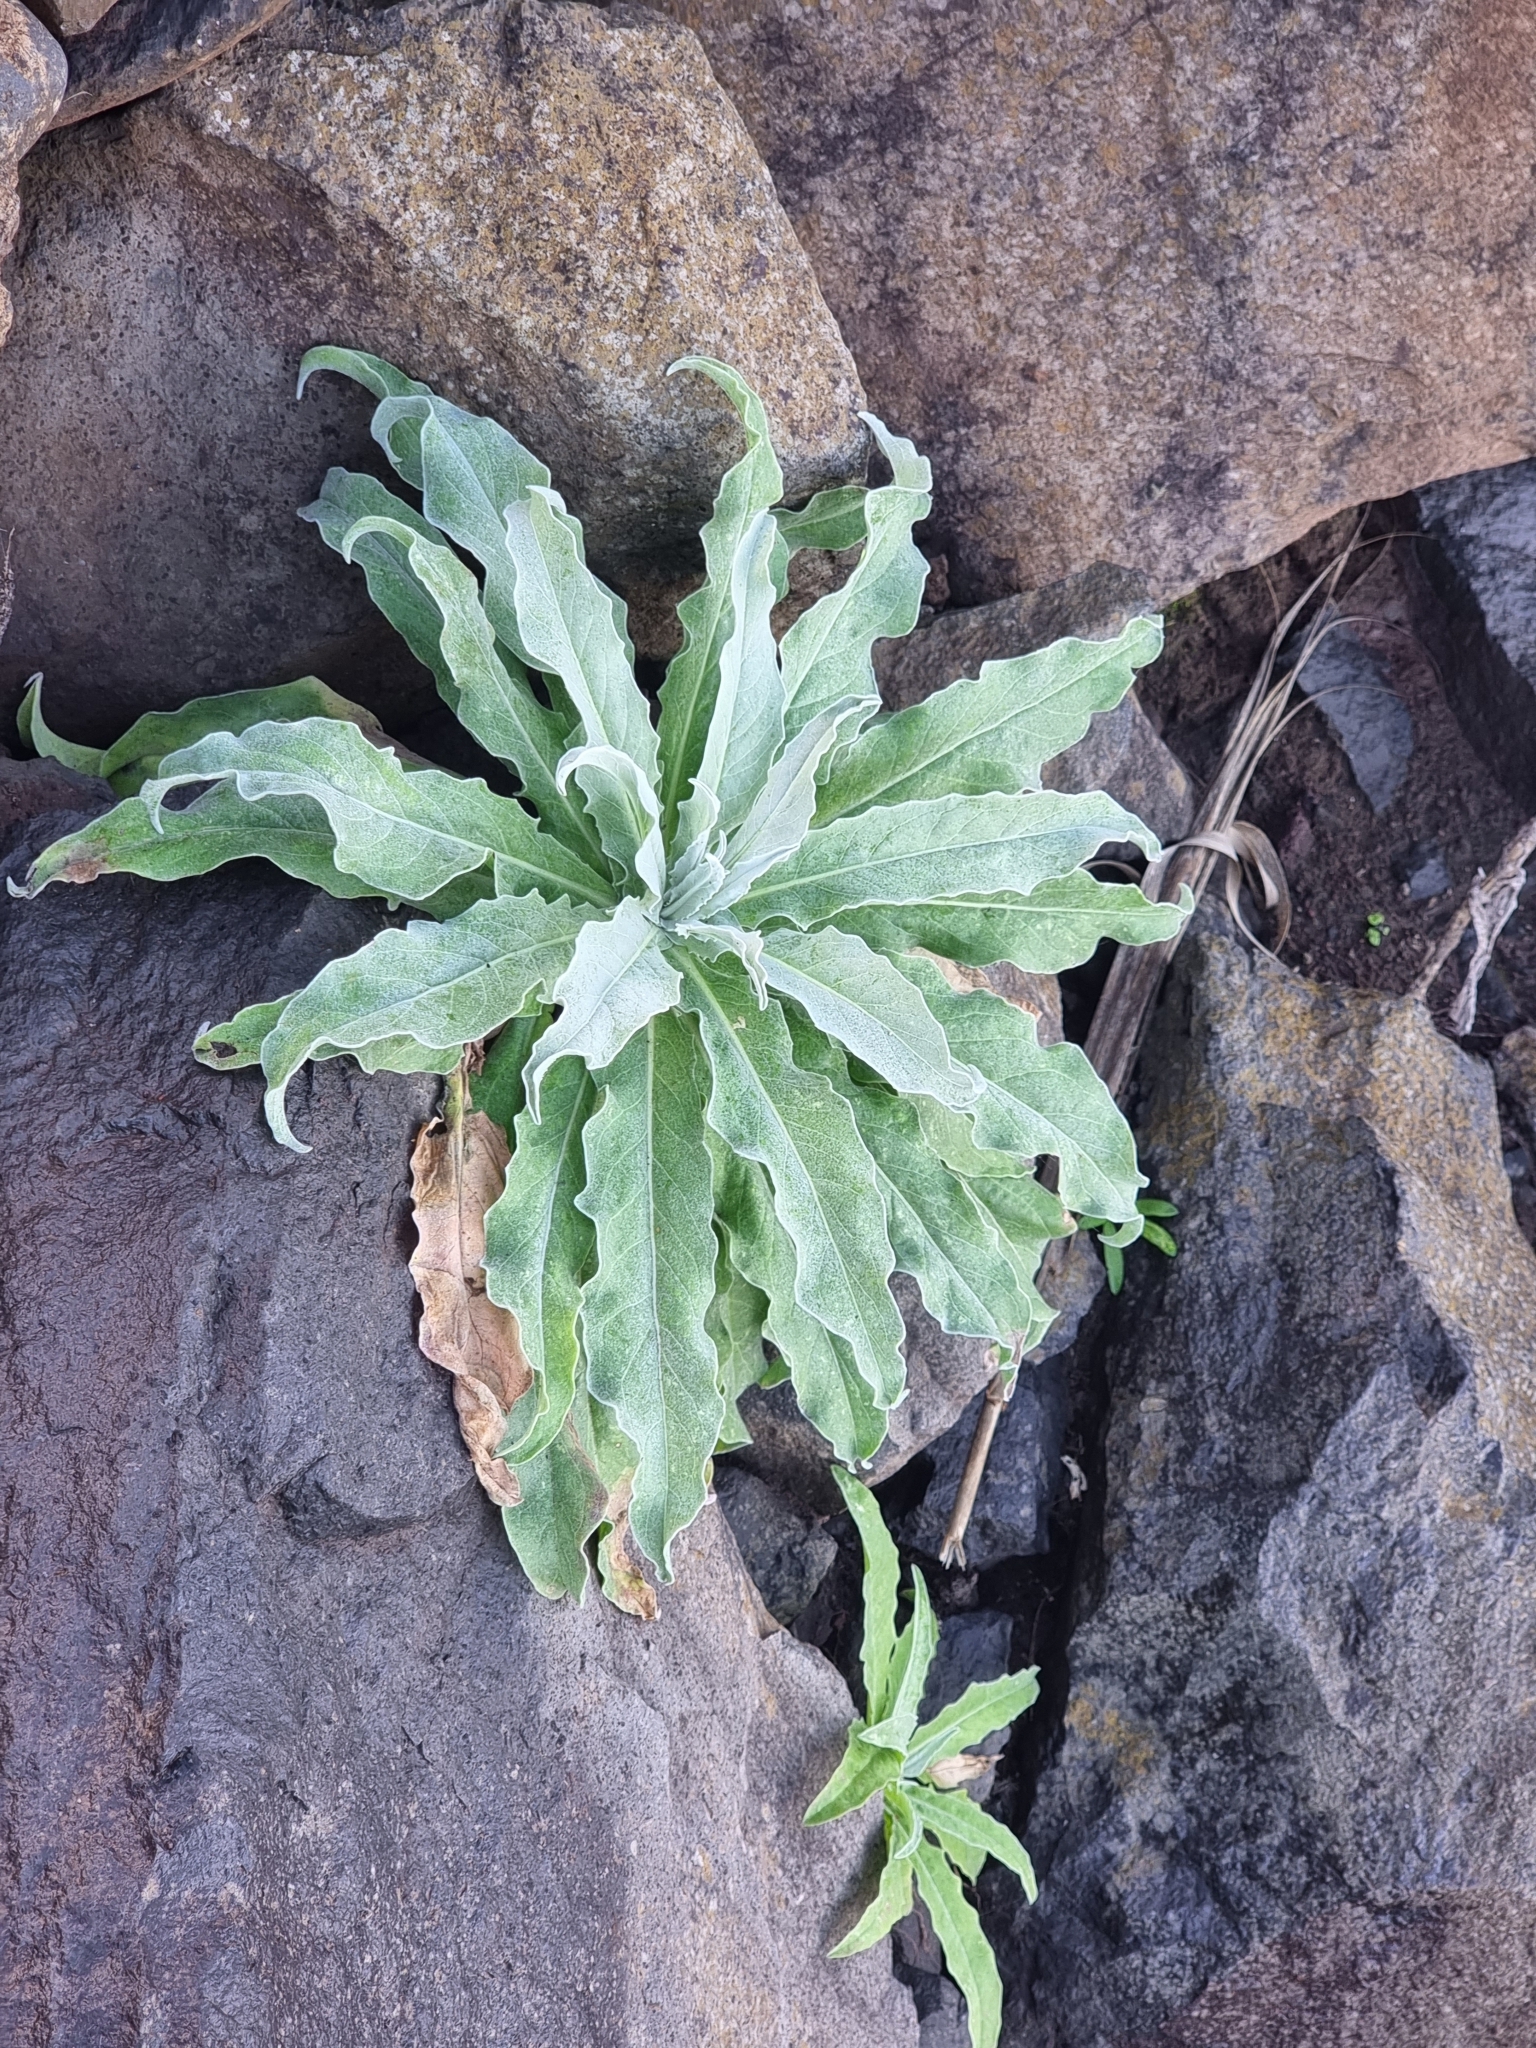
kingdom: Plantae
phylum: Tracheophyta
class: Magnoliopsida
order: Asterales
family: Asteraceae
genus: Andryala
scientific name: Andryala glandulosa
